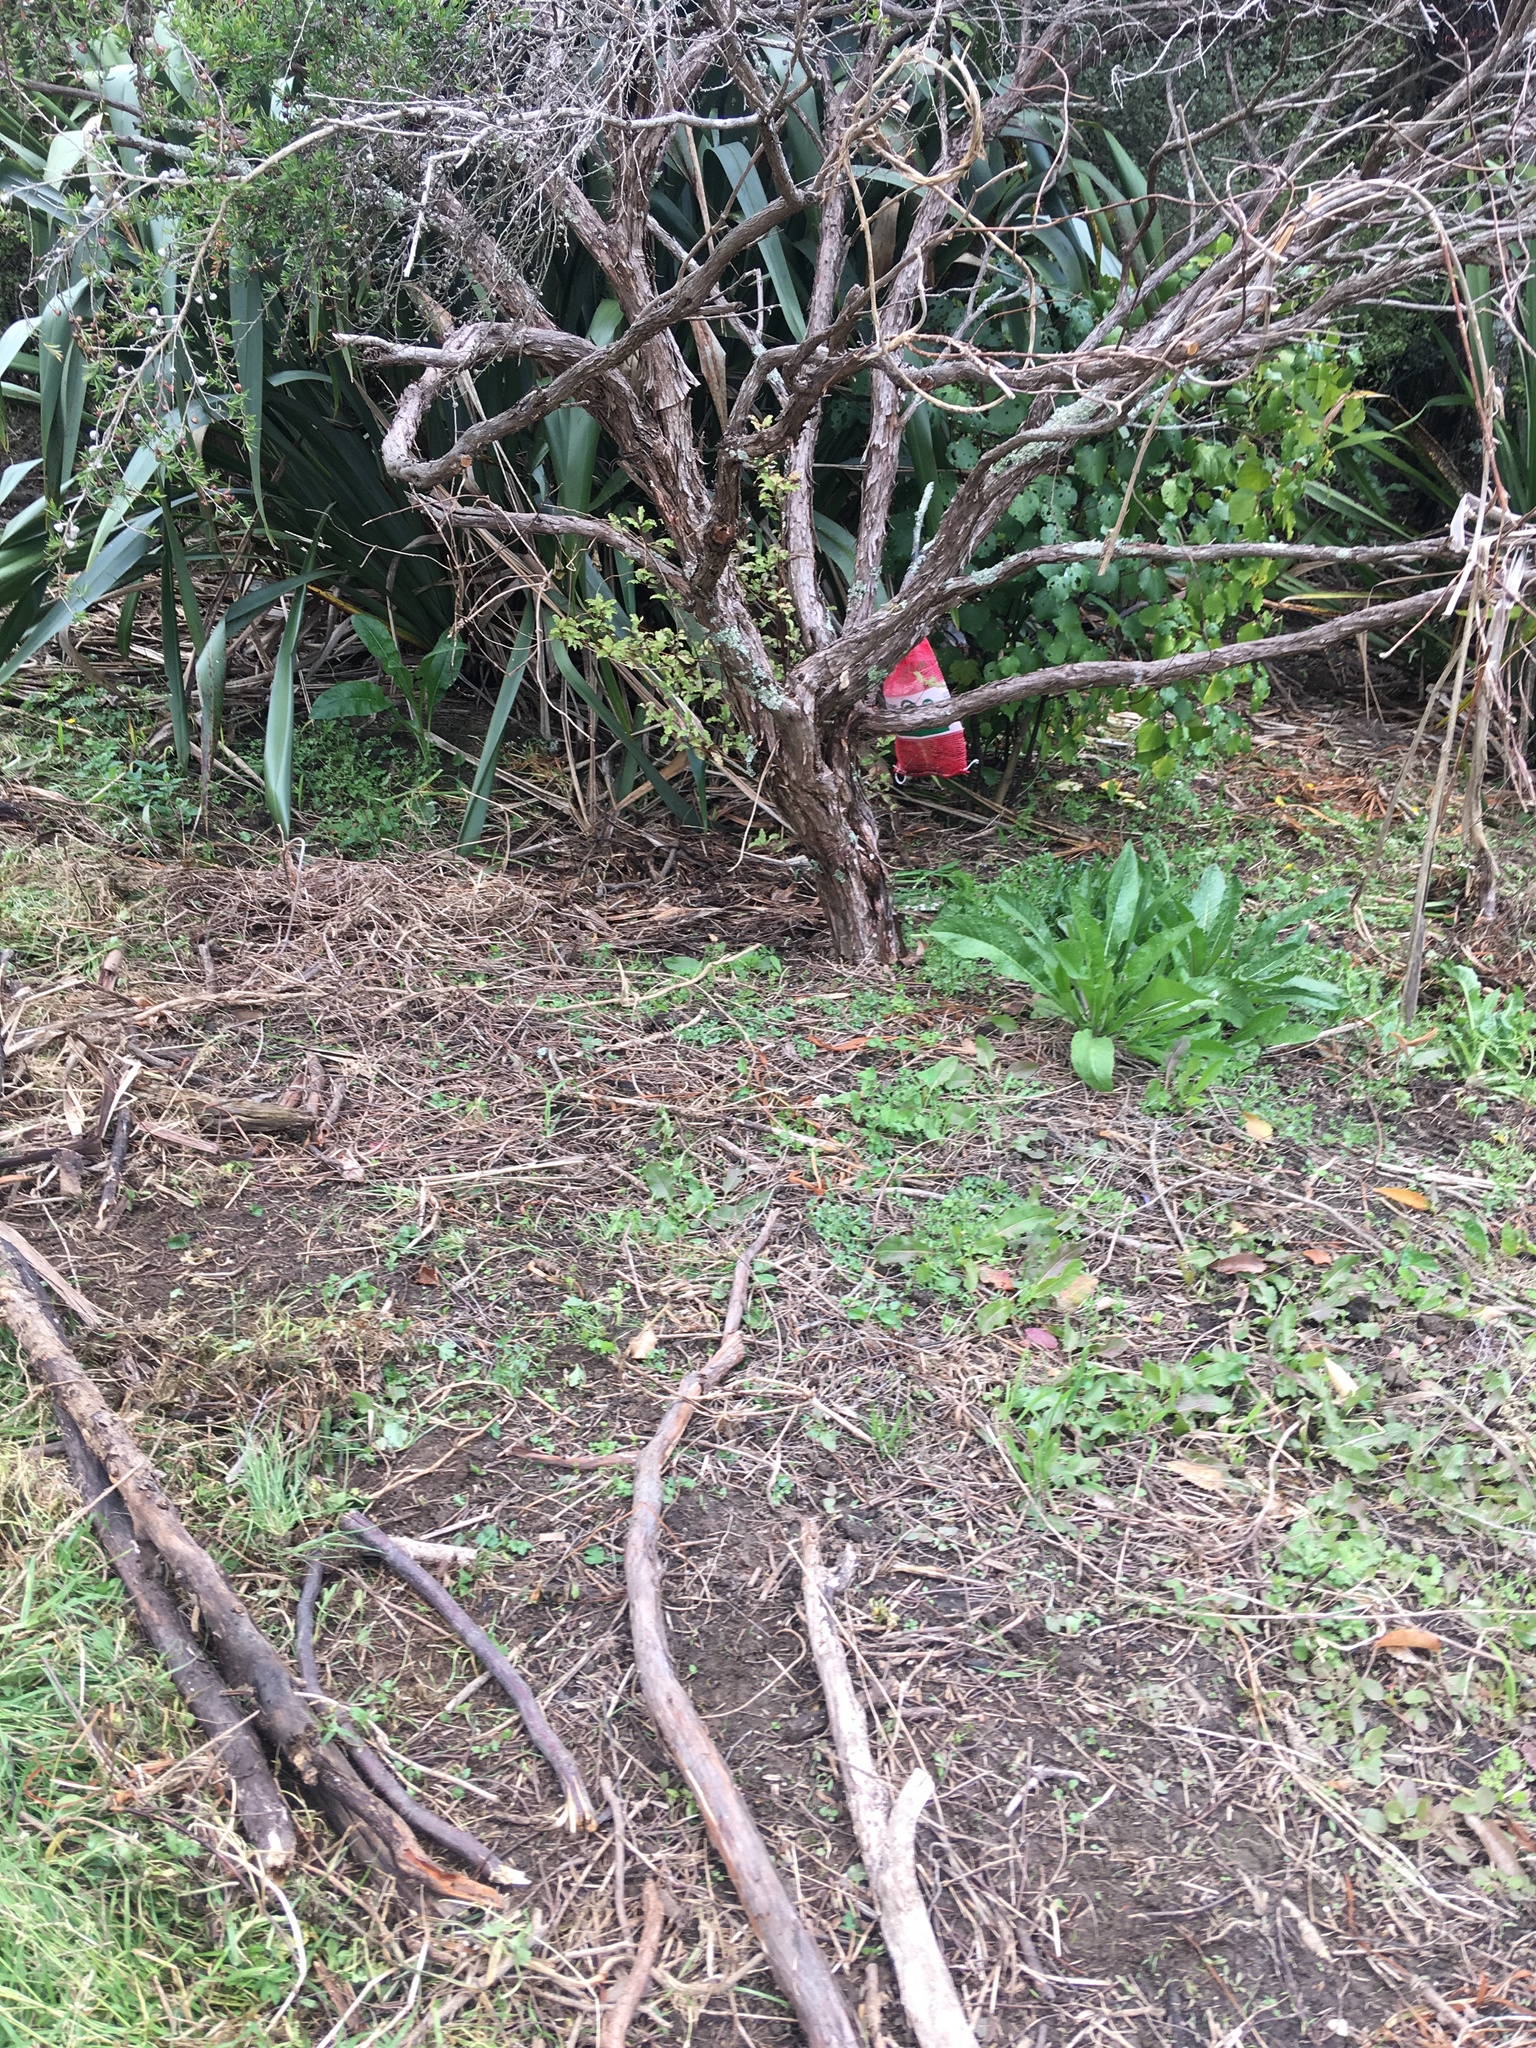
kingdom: Plantae
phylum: Tracheophyta
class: Liliopsida
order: Poales
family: Poaceae
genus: Cenchrus
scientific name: Cenchrus clandestinus
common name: Kikuyugrass
